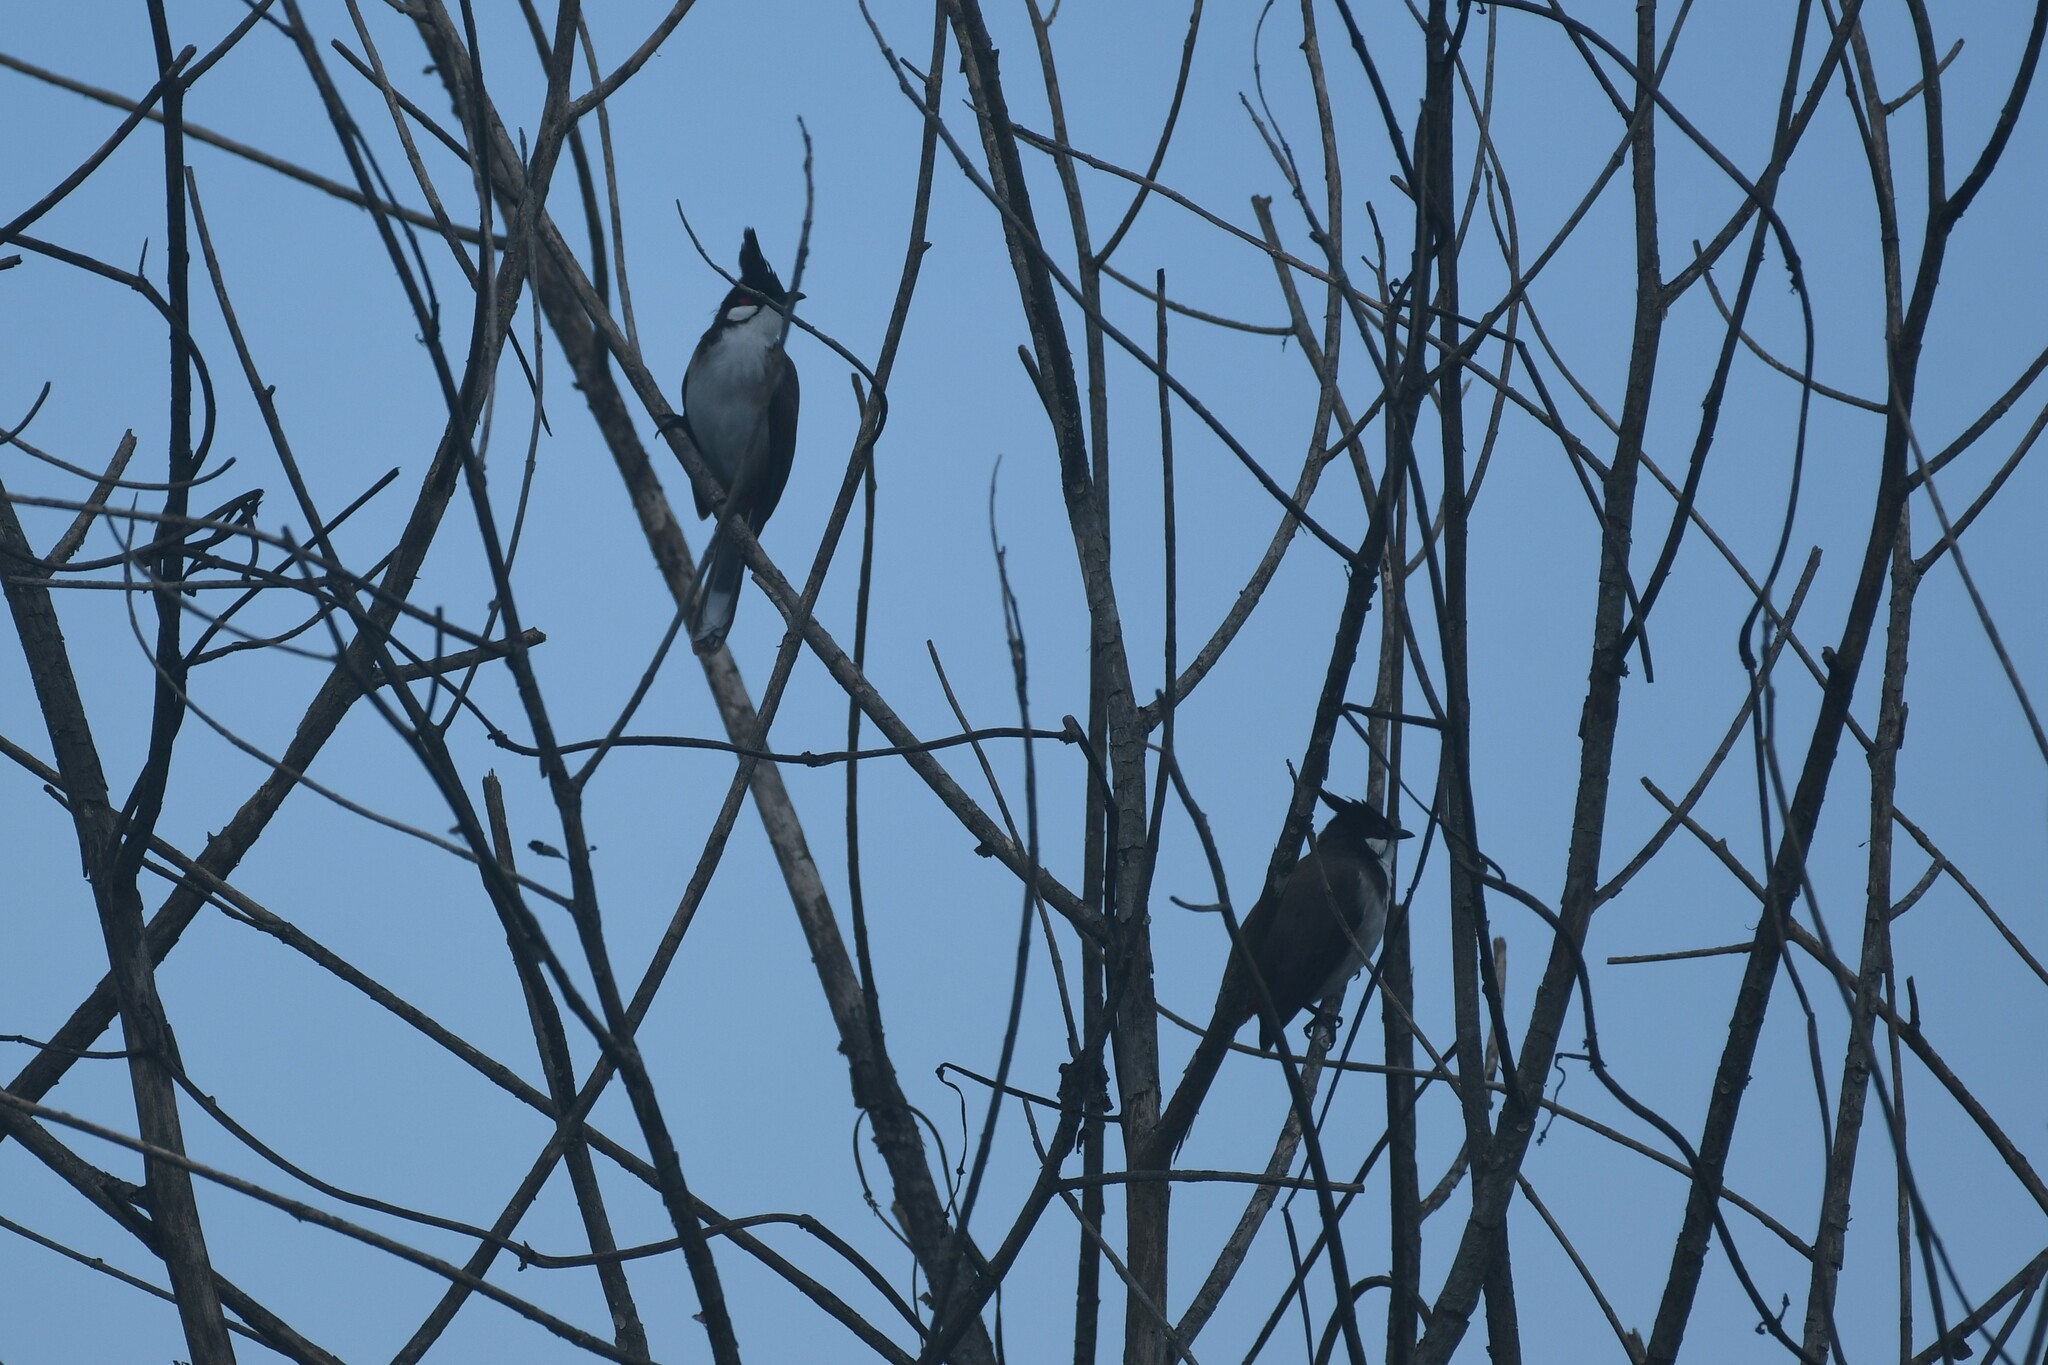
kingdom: Animalia
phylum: Chordata
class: Aves
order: Passeriformes
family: Pycnonotidae
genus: Pycnonotus
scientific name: Pycnonotus jocosus
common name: Red-whiskered bulbul
